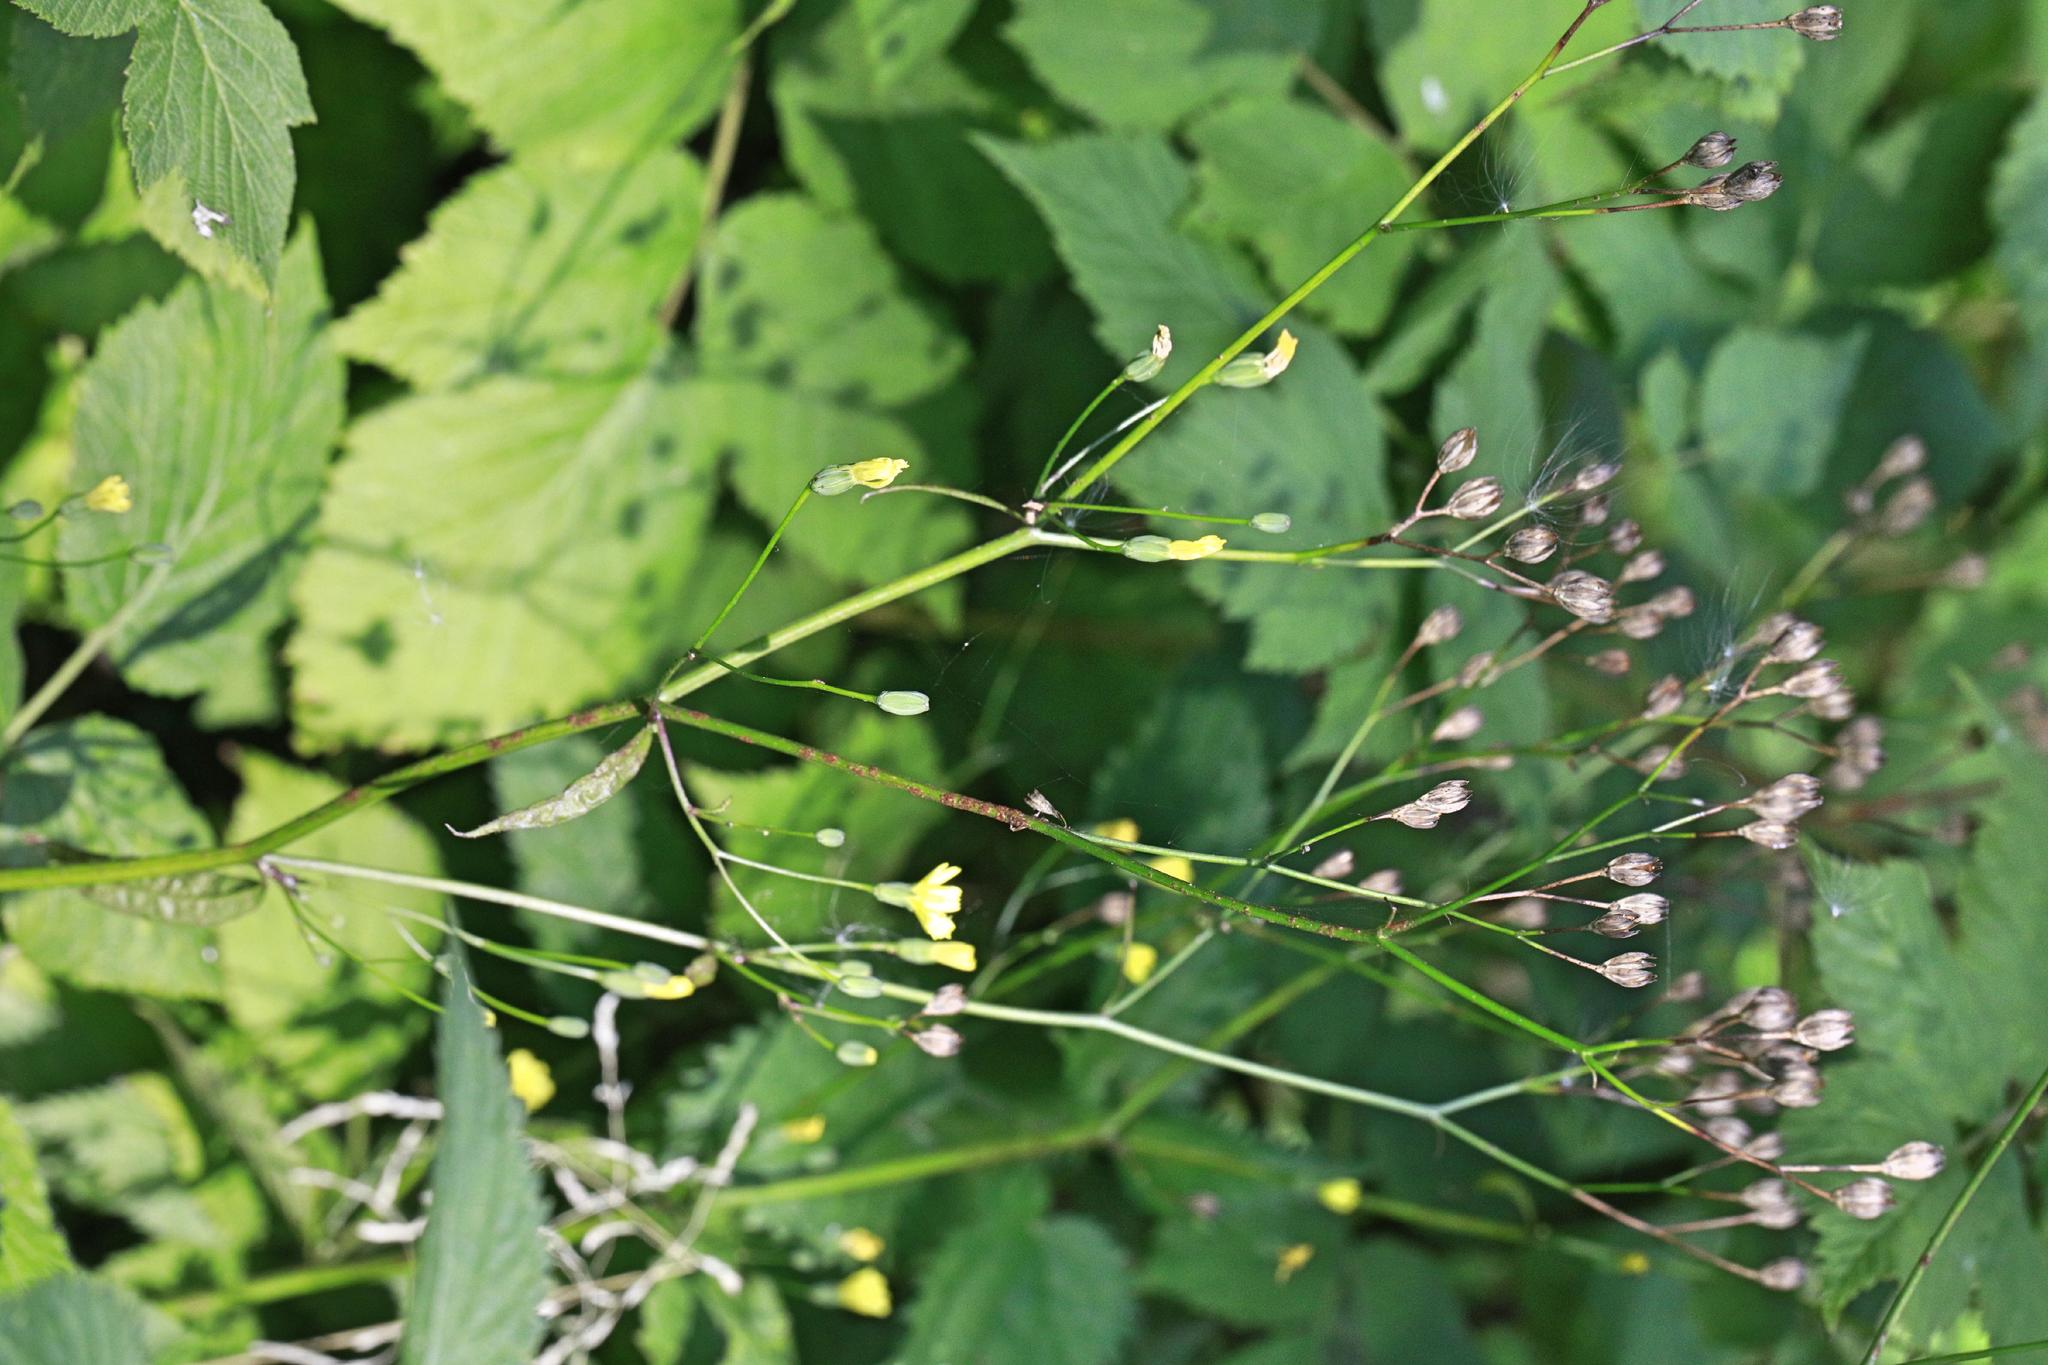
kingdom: Plantae
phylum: Tracheophyta
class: Magnoliopsida
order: Asterales
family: Asteraceae
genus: Lapsana
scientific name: Lapsana communis
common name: Nipplewort
